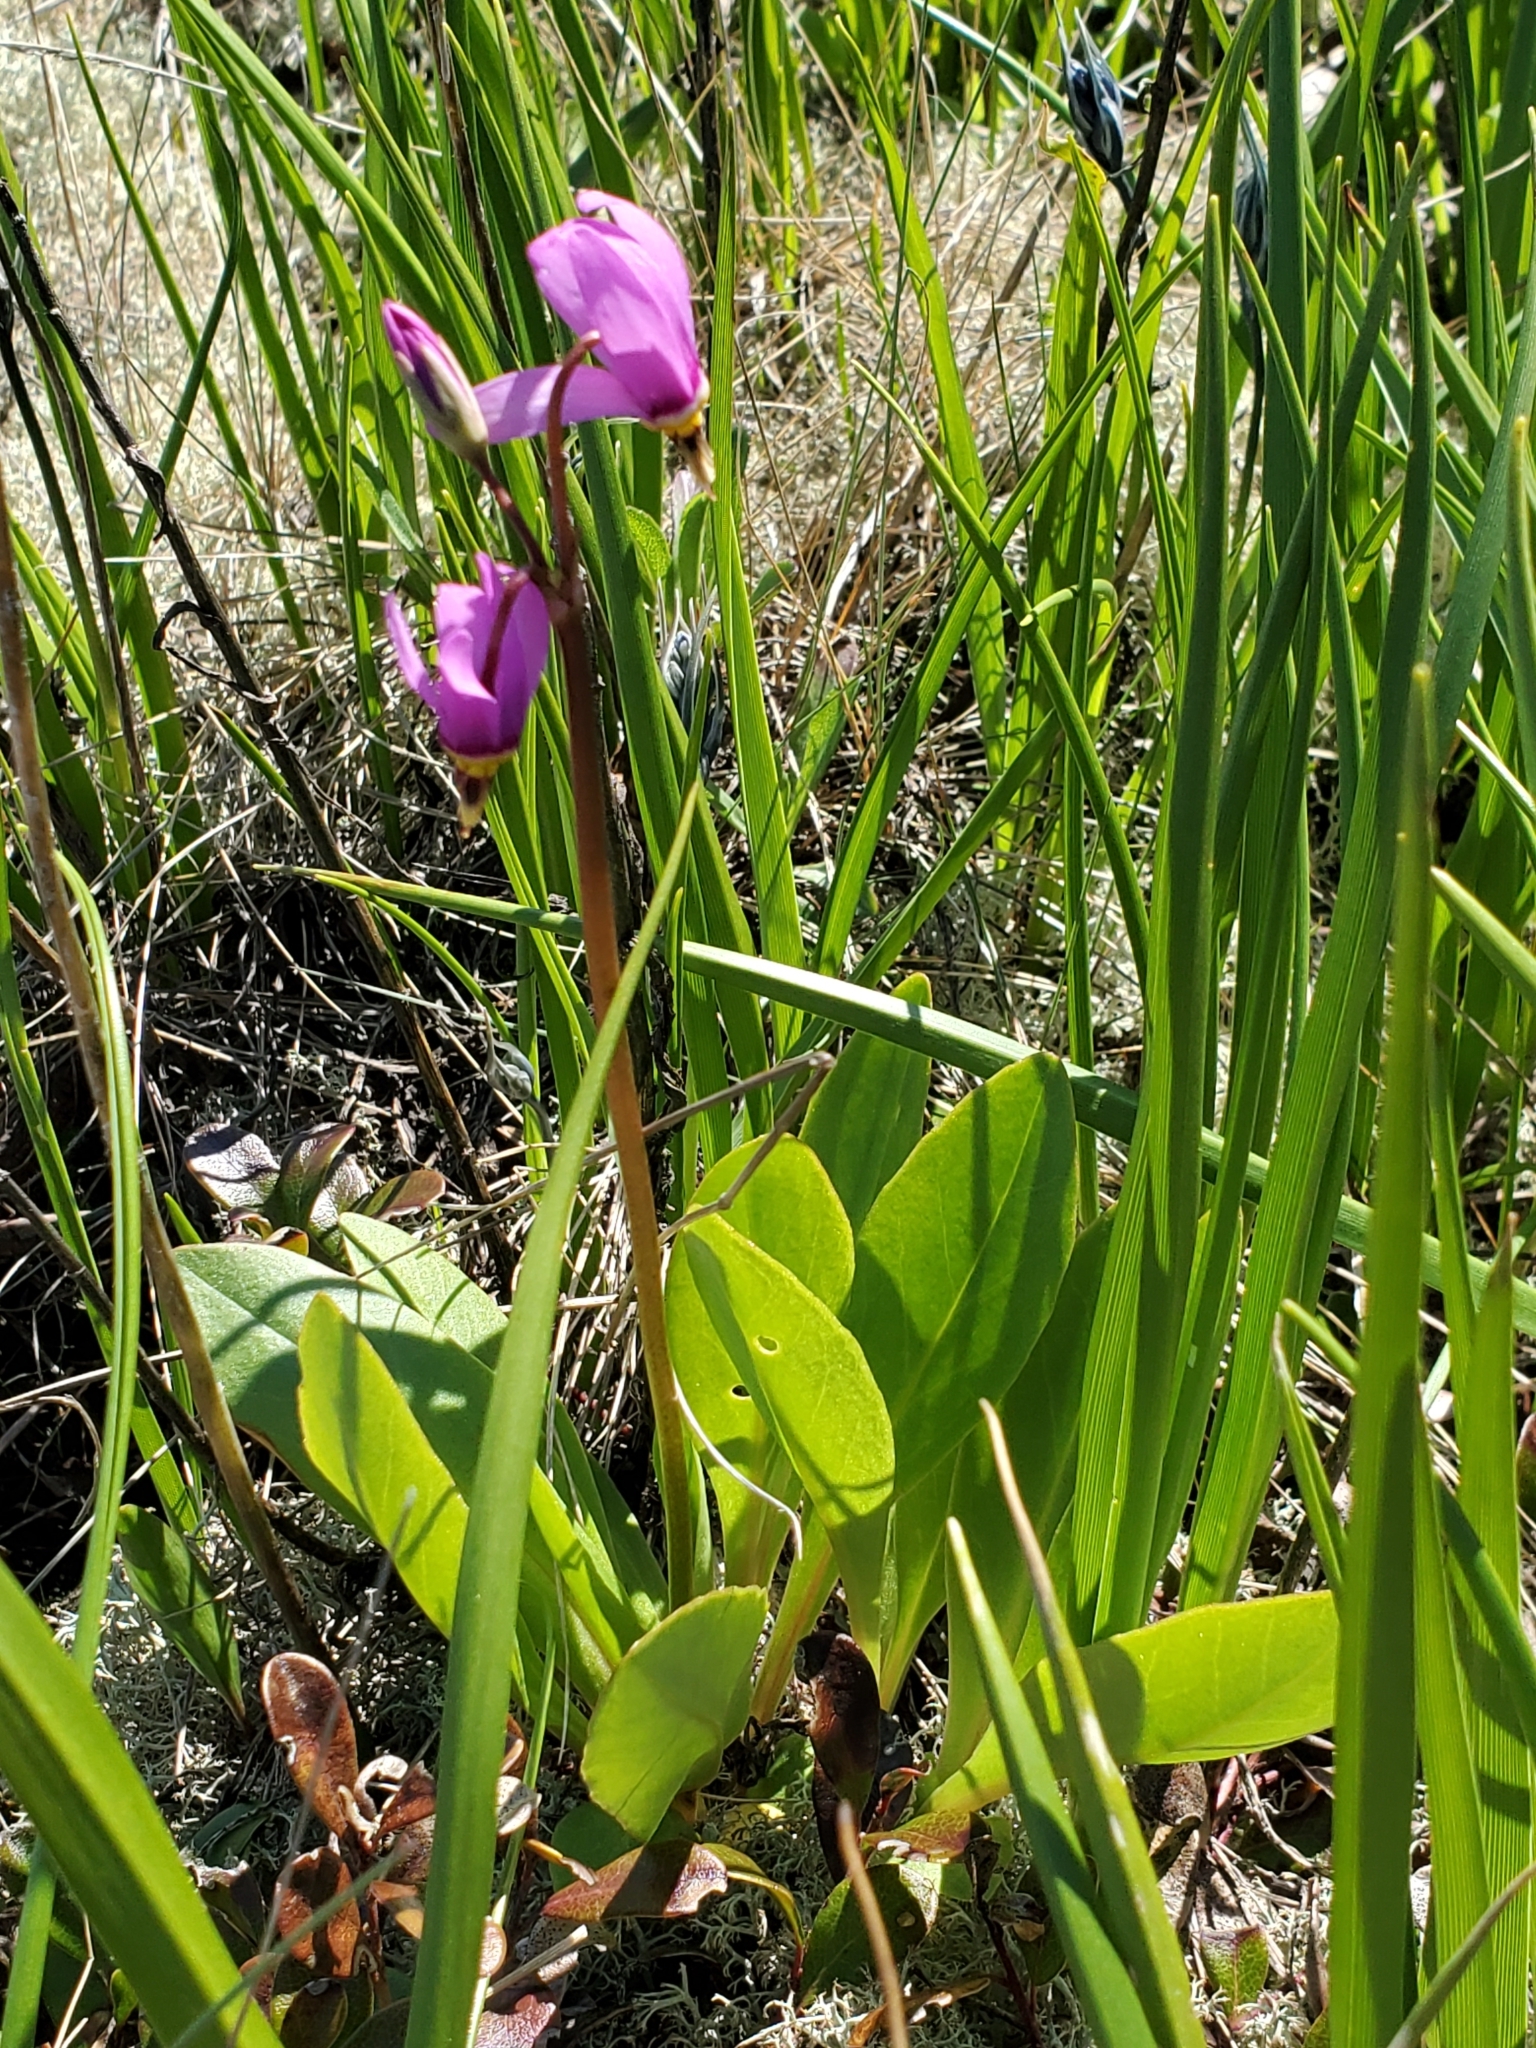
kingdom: Plantae
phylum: Tracheophyta
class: Magnoliopsida
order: Ericales
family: Primulaceae
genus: Dodecatheon
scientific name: Dodecatheon pulchellum
